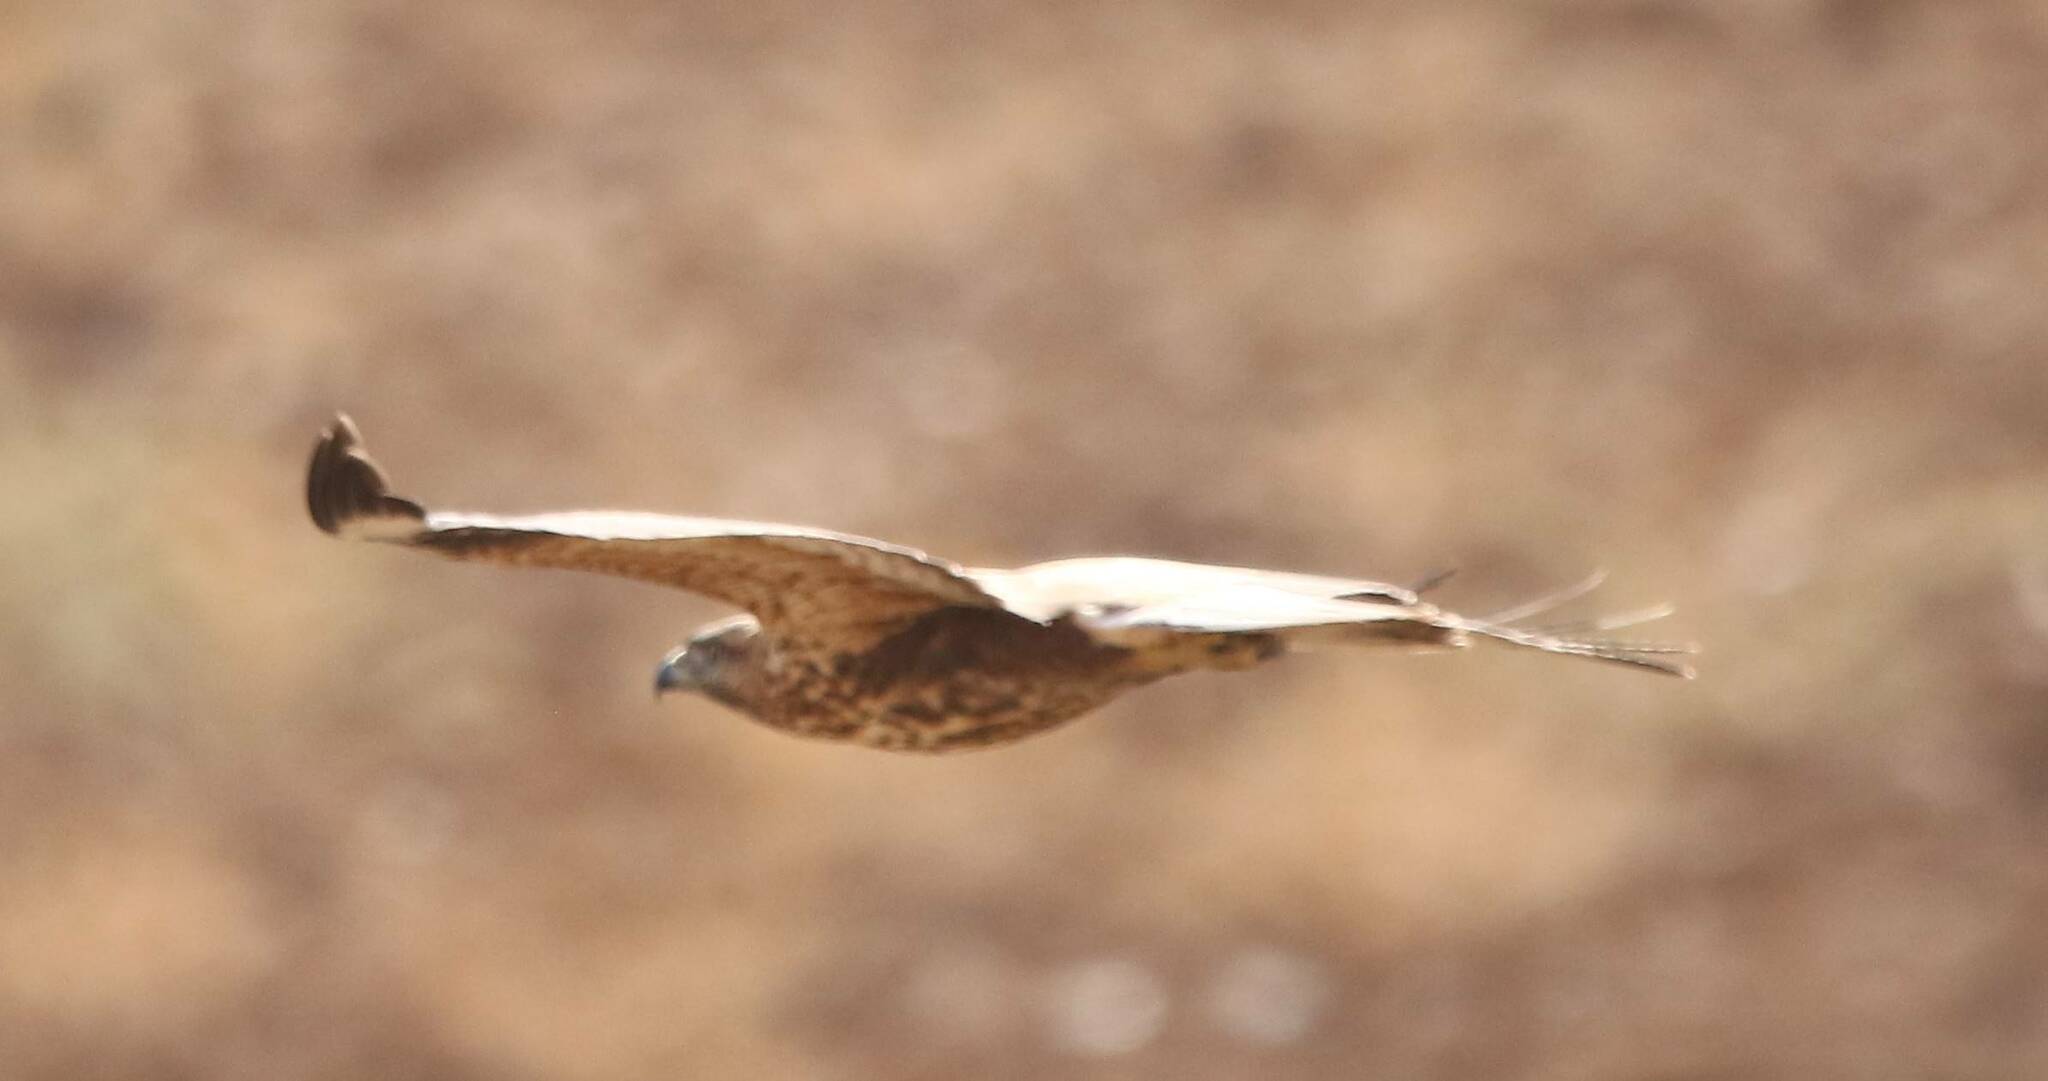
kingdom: Animalia
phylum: Chordata
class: Aves
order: Accipitriformes
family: Accipitridae
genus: Buteo
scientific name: Buteo buteo
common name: Common buzzard
